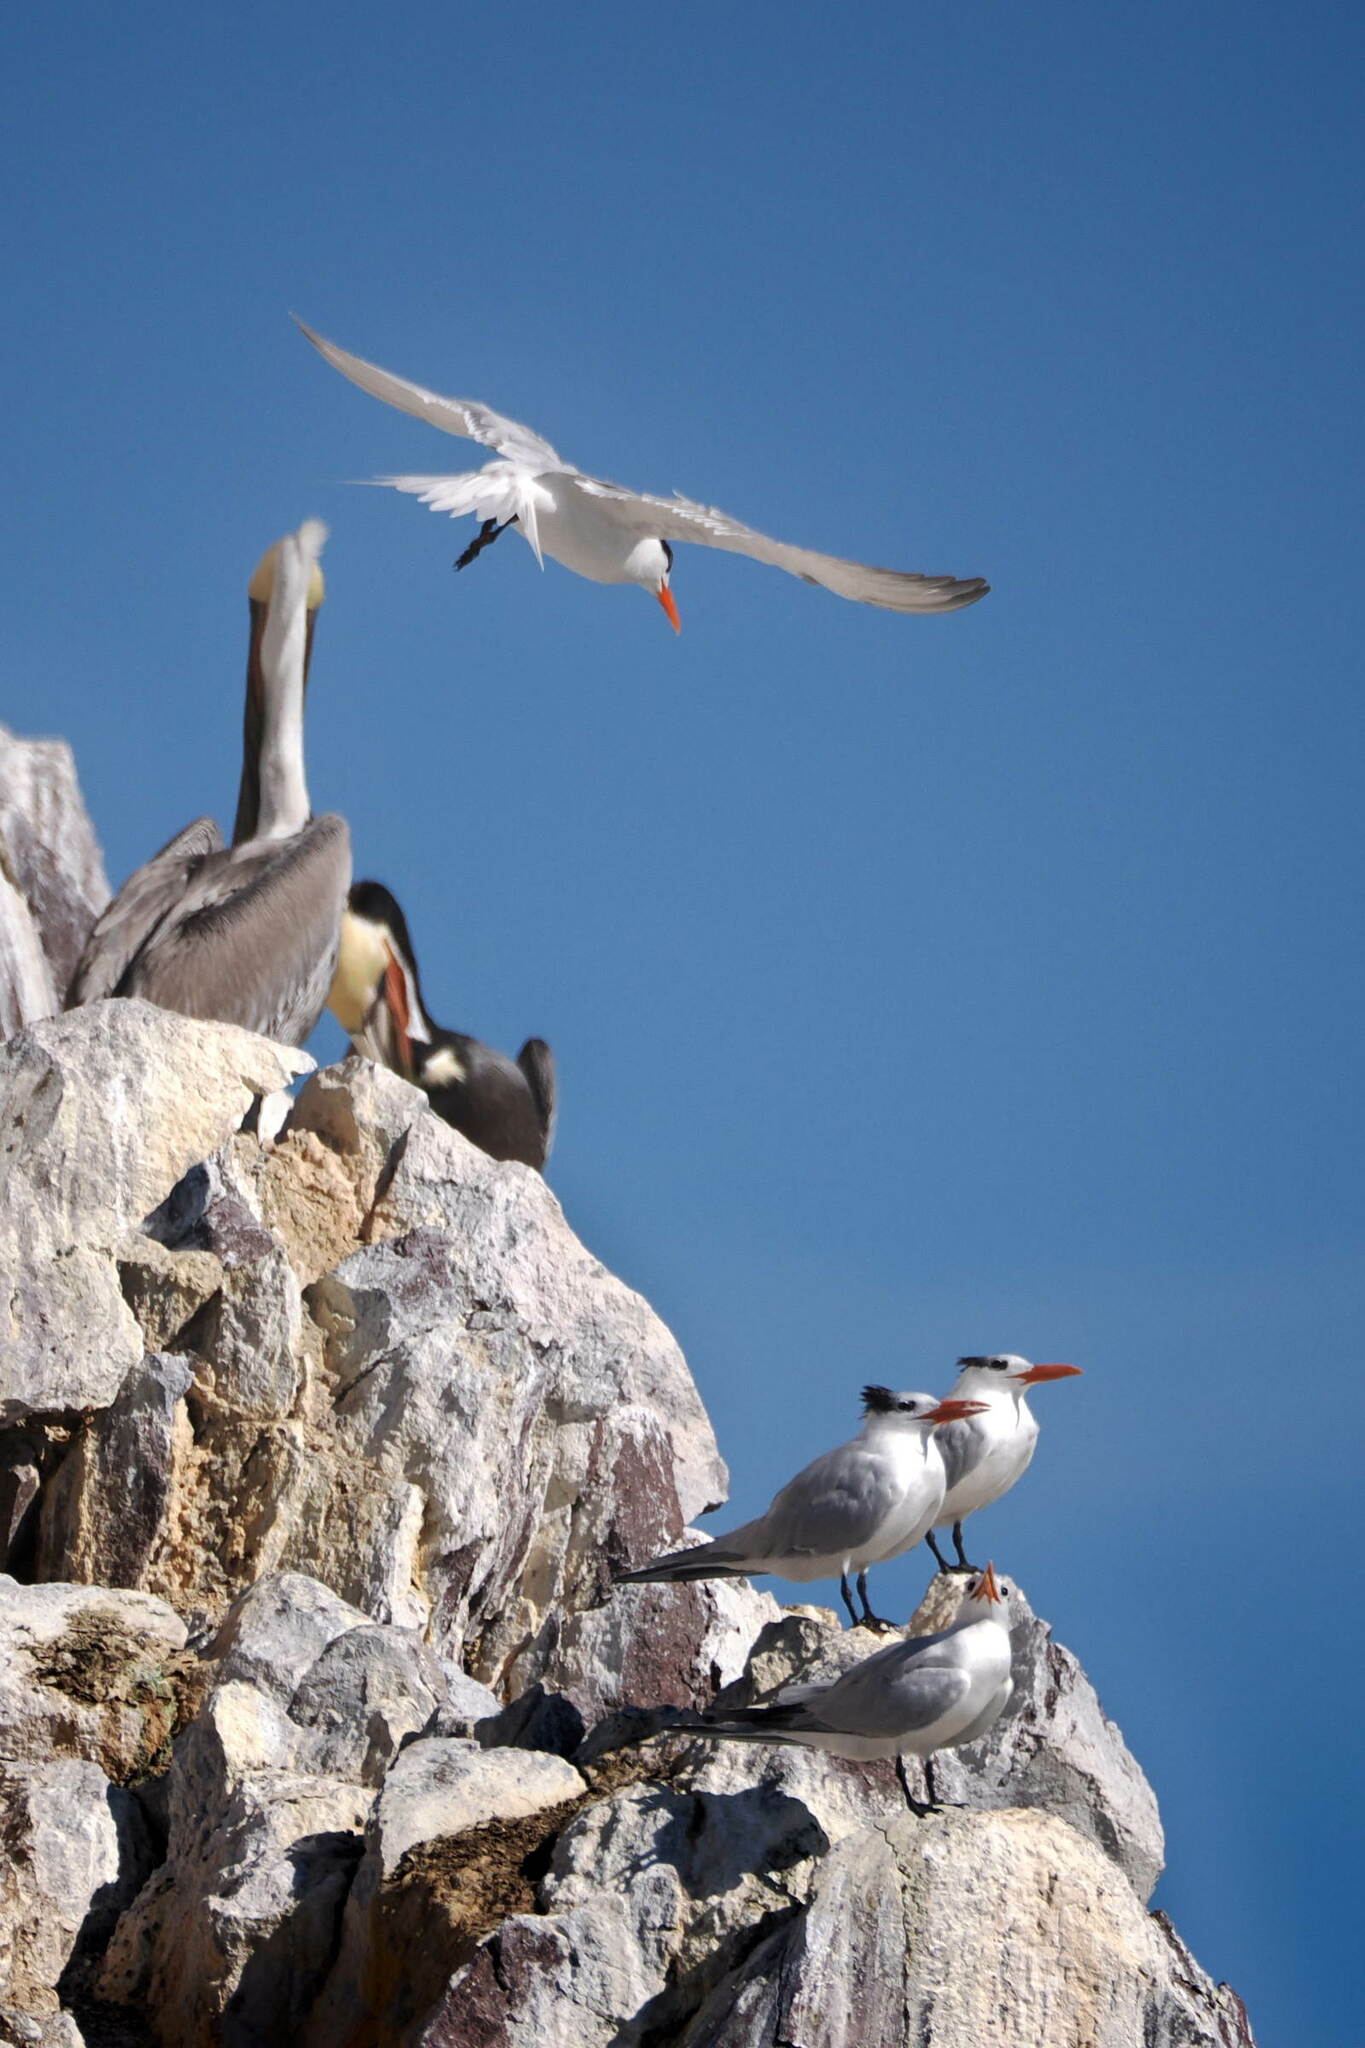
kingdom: Animalia
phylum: Chordata
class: Aves
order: Charadriiformes
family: Laridae
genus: Thalasseus
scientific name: Thalasseus maximus
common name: Royal tern
